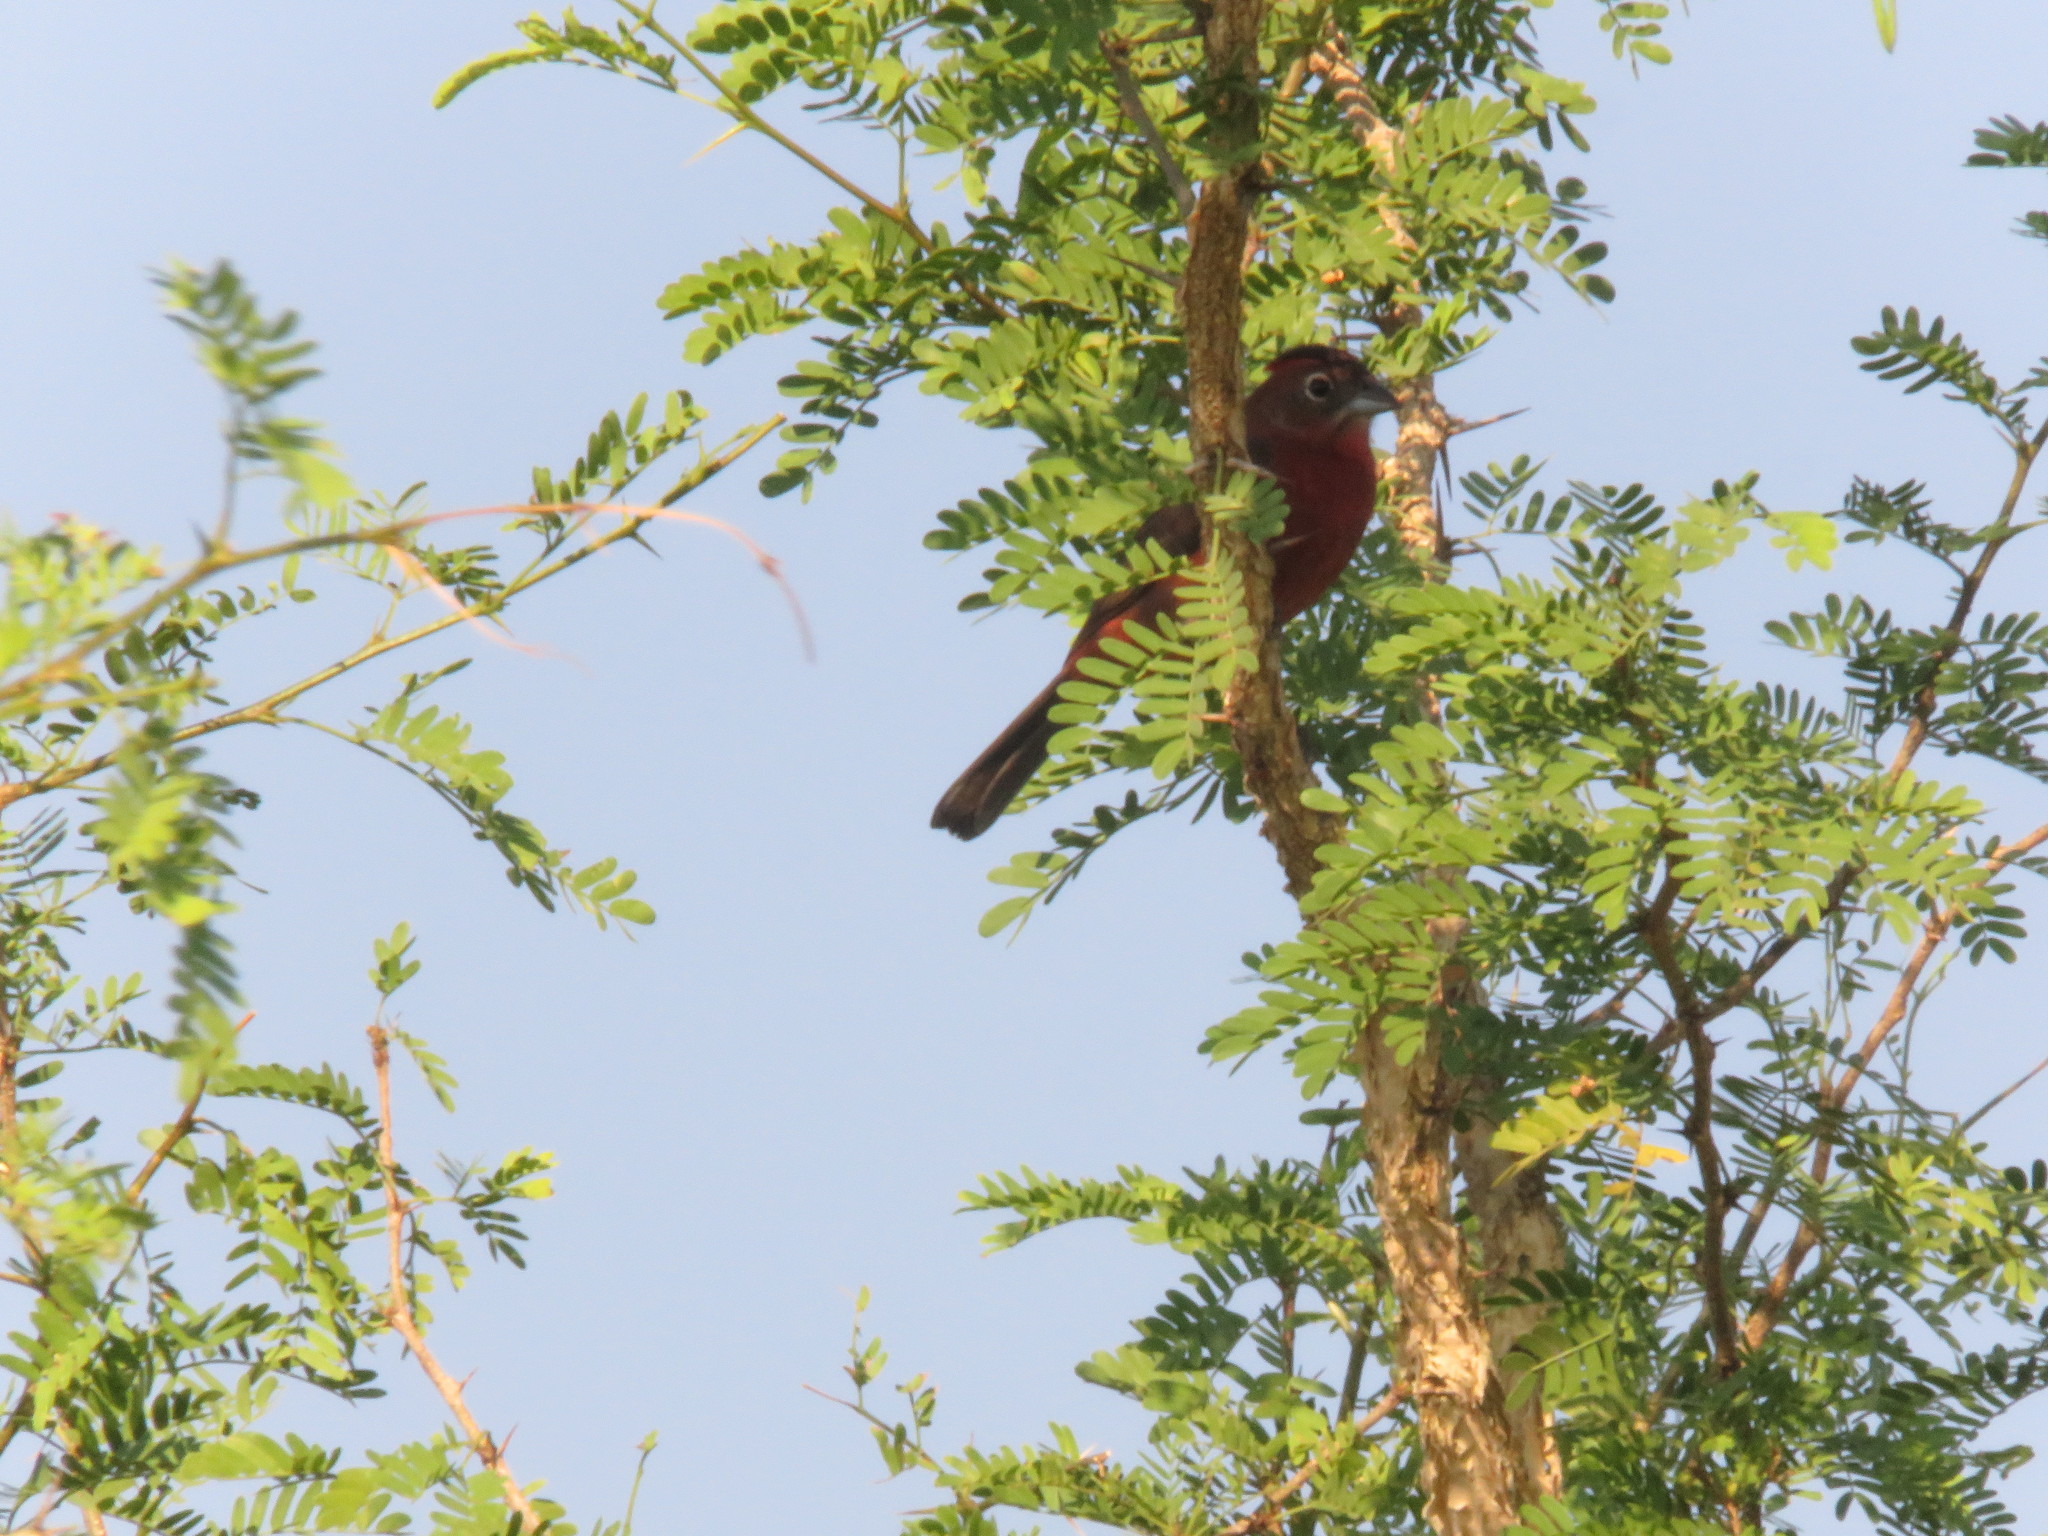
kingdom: Animalia
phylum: Chordata
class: Aves
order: Passeriformes
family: Thraupidae
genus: Coryphospingus
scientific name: Coryphospingus cucullatus
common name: Red pileated finch
